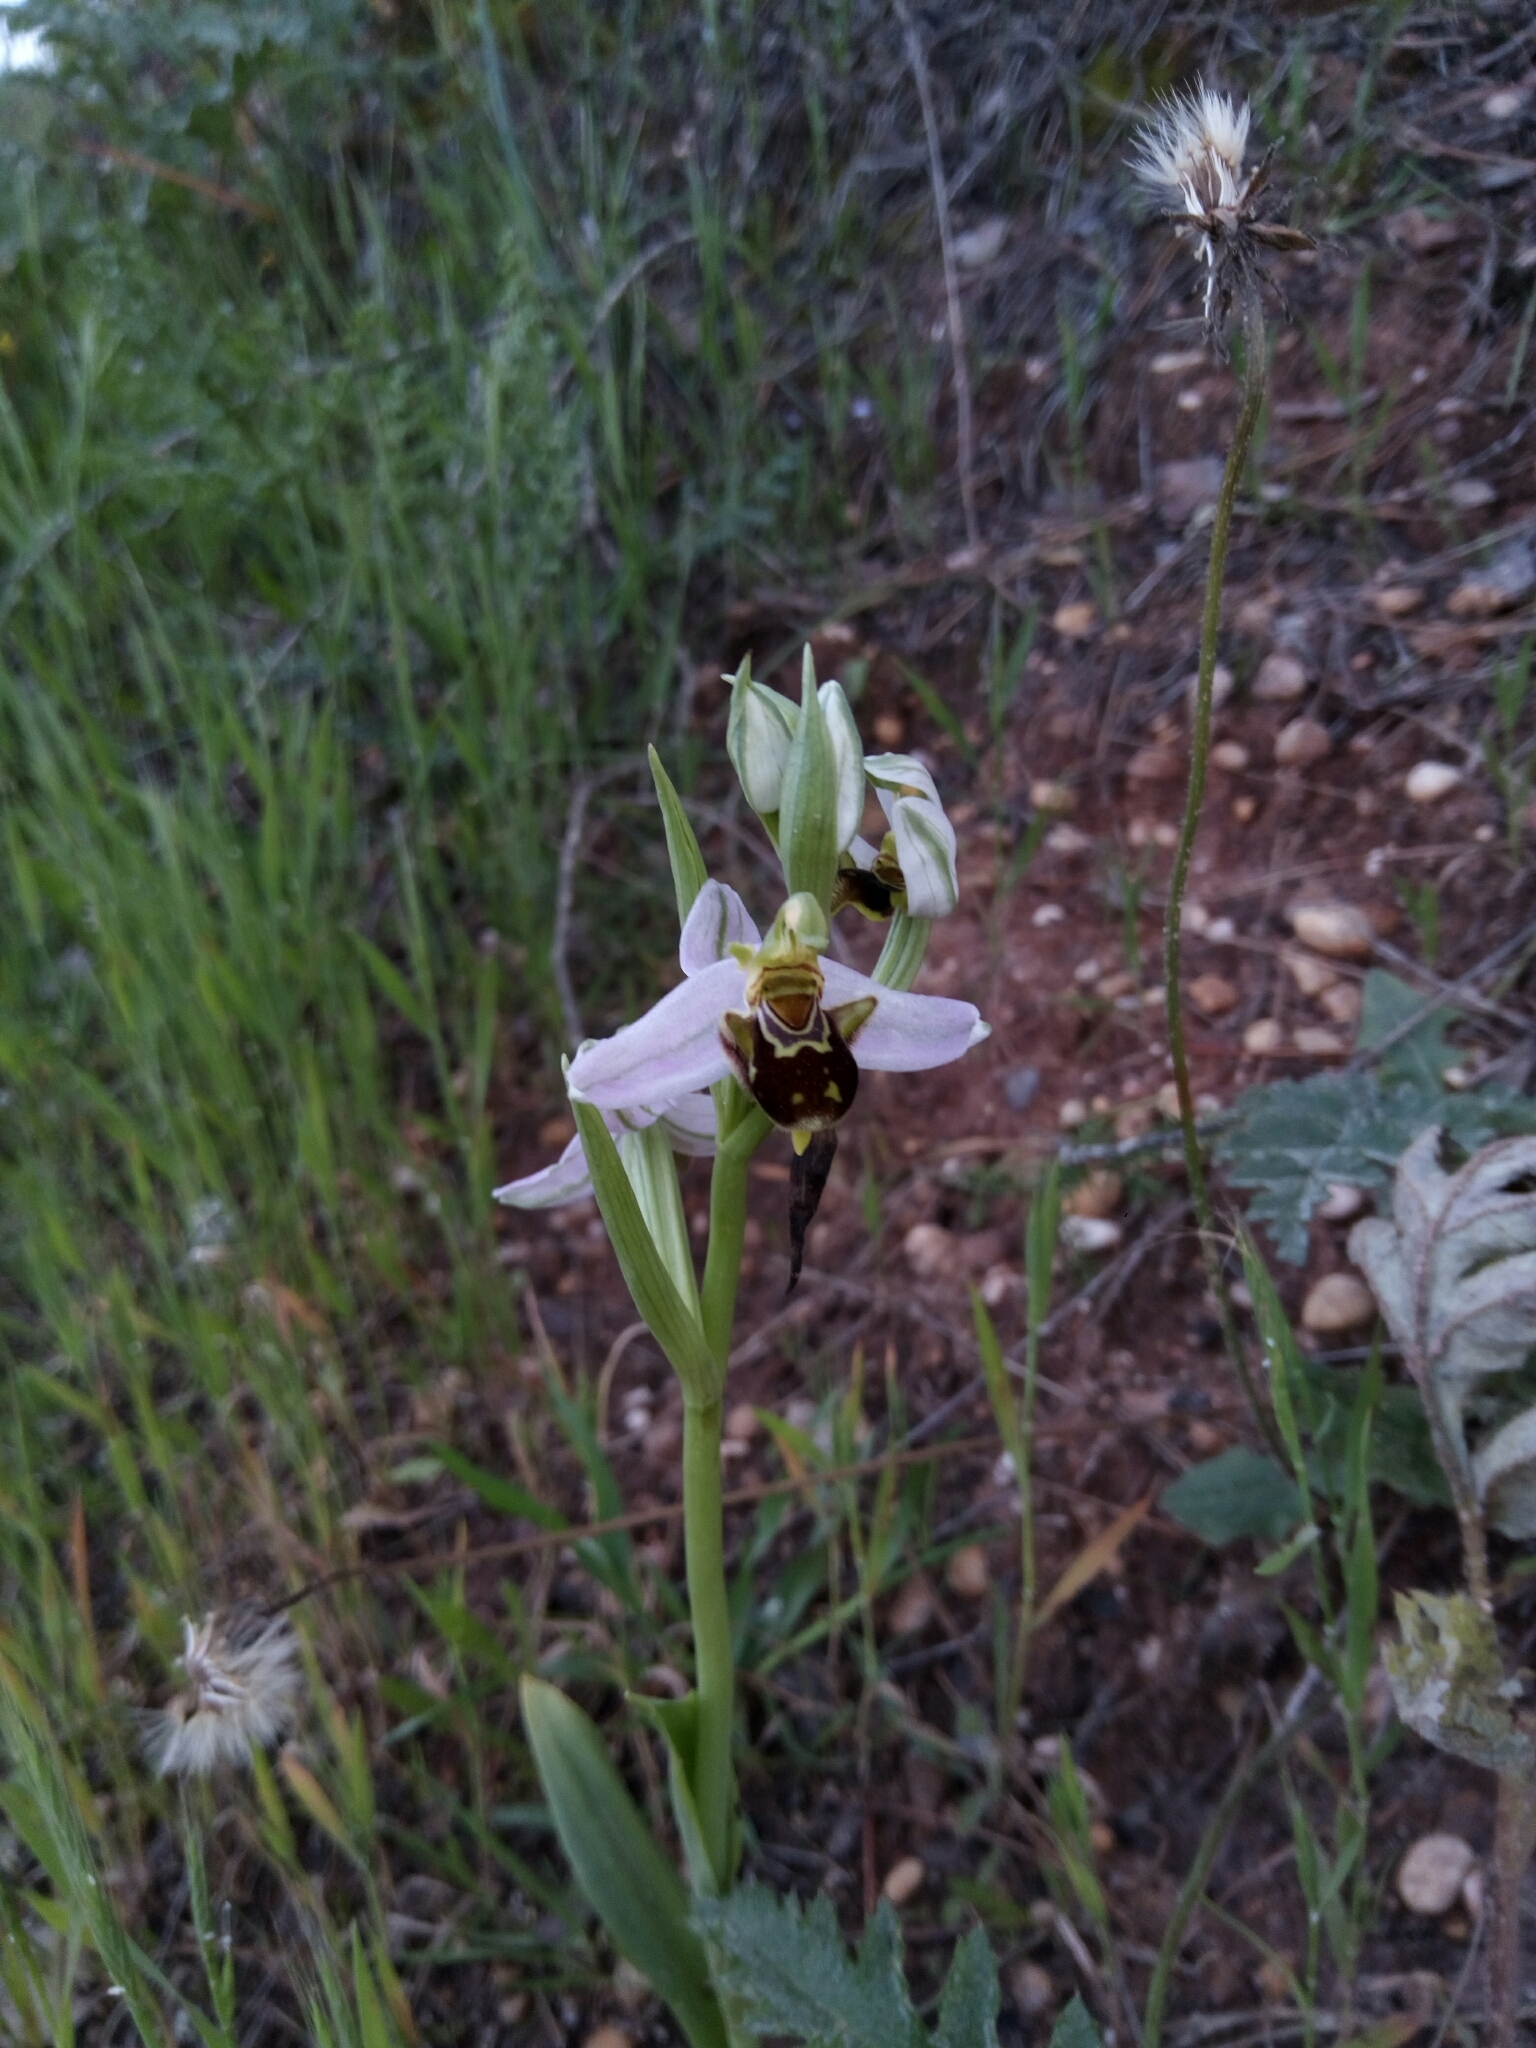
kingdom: Plantae
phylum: Tracheophyta
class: Liliopsida
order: Asparagales
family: Orchidaceae
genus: Ophrys
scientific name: Ophrys apifera
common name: Bee orchid
